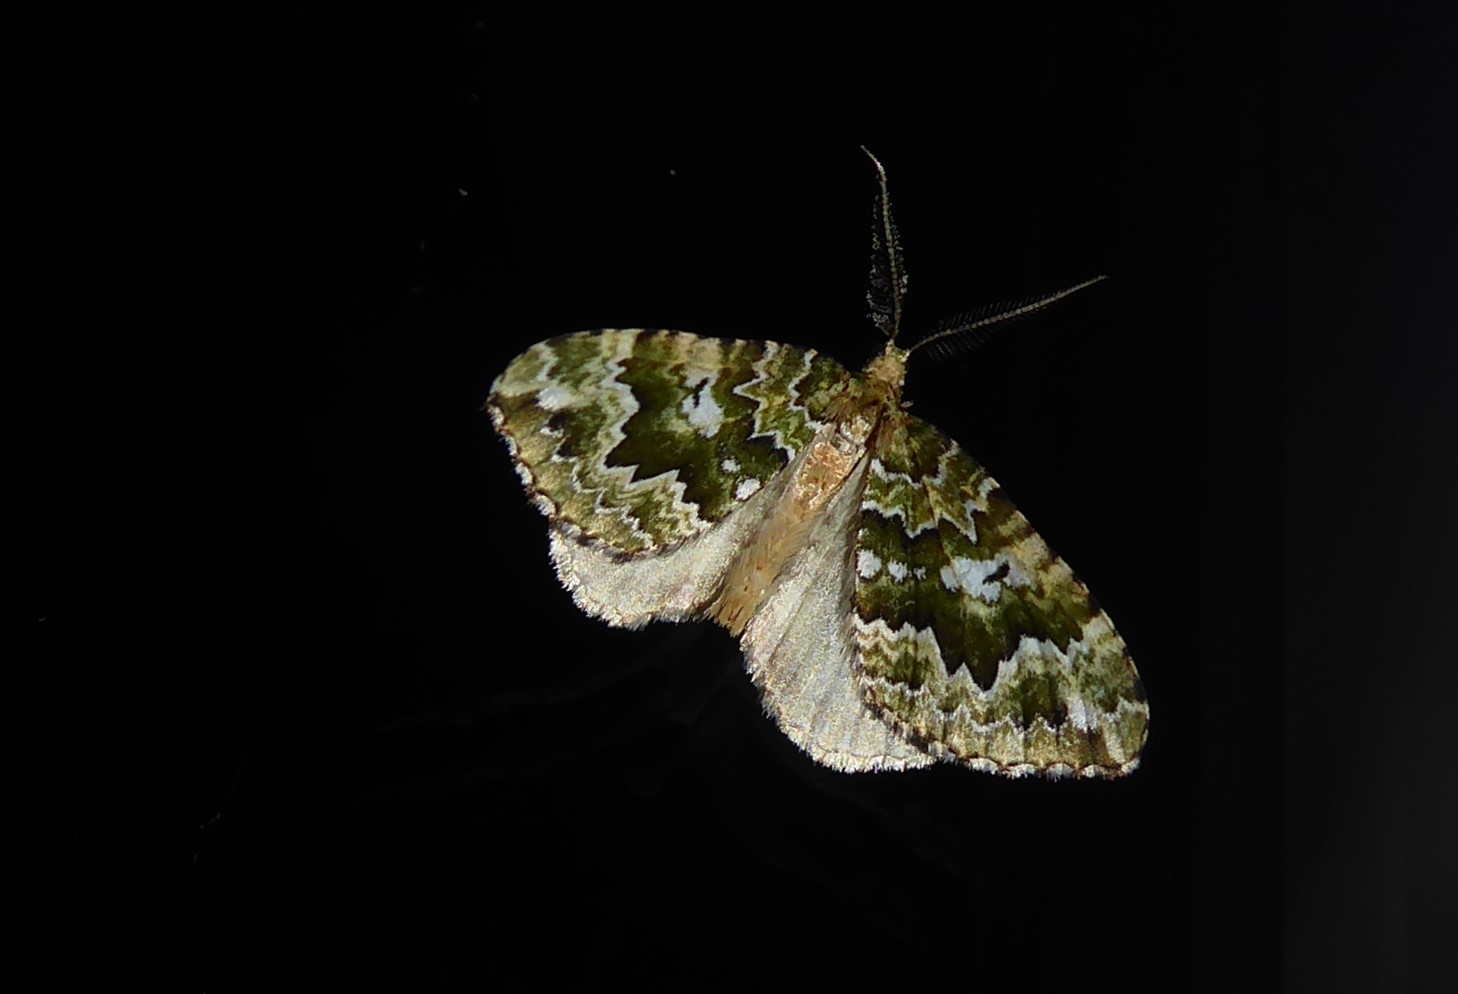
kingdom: Animalia
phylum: Arthropoda
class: Insecta
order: Lepidoptera
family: Geometridae
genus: Asaphodes
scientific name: Asaphodes beata
